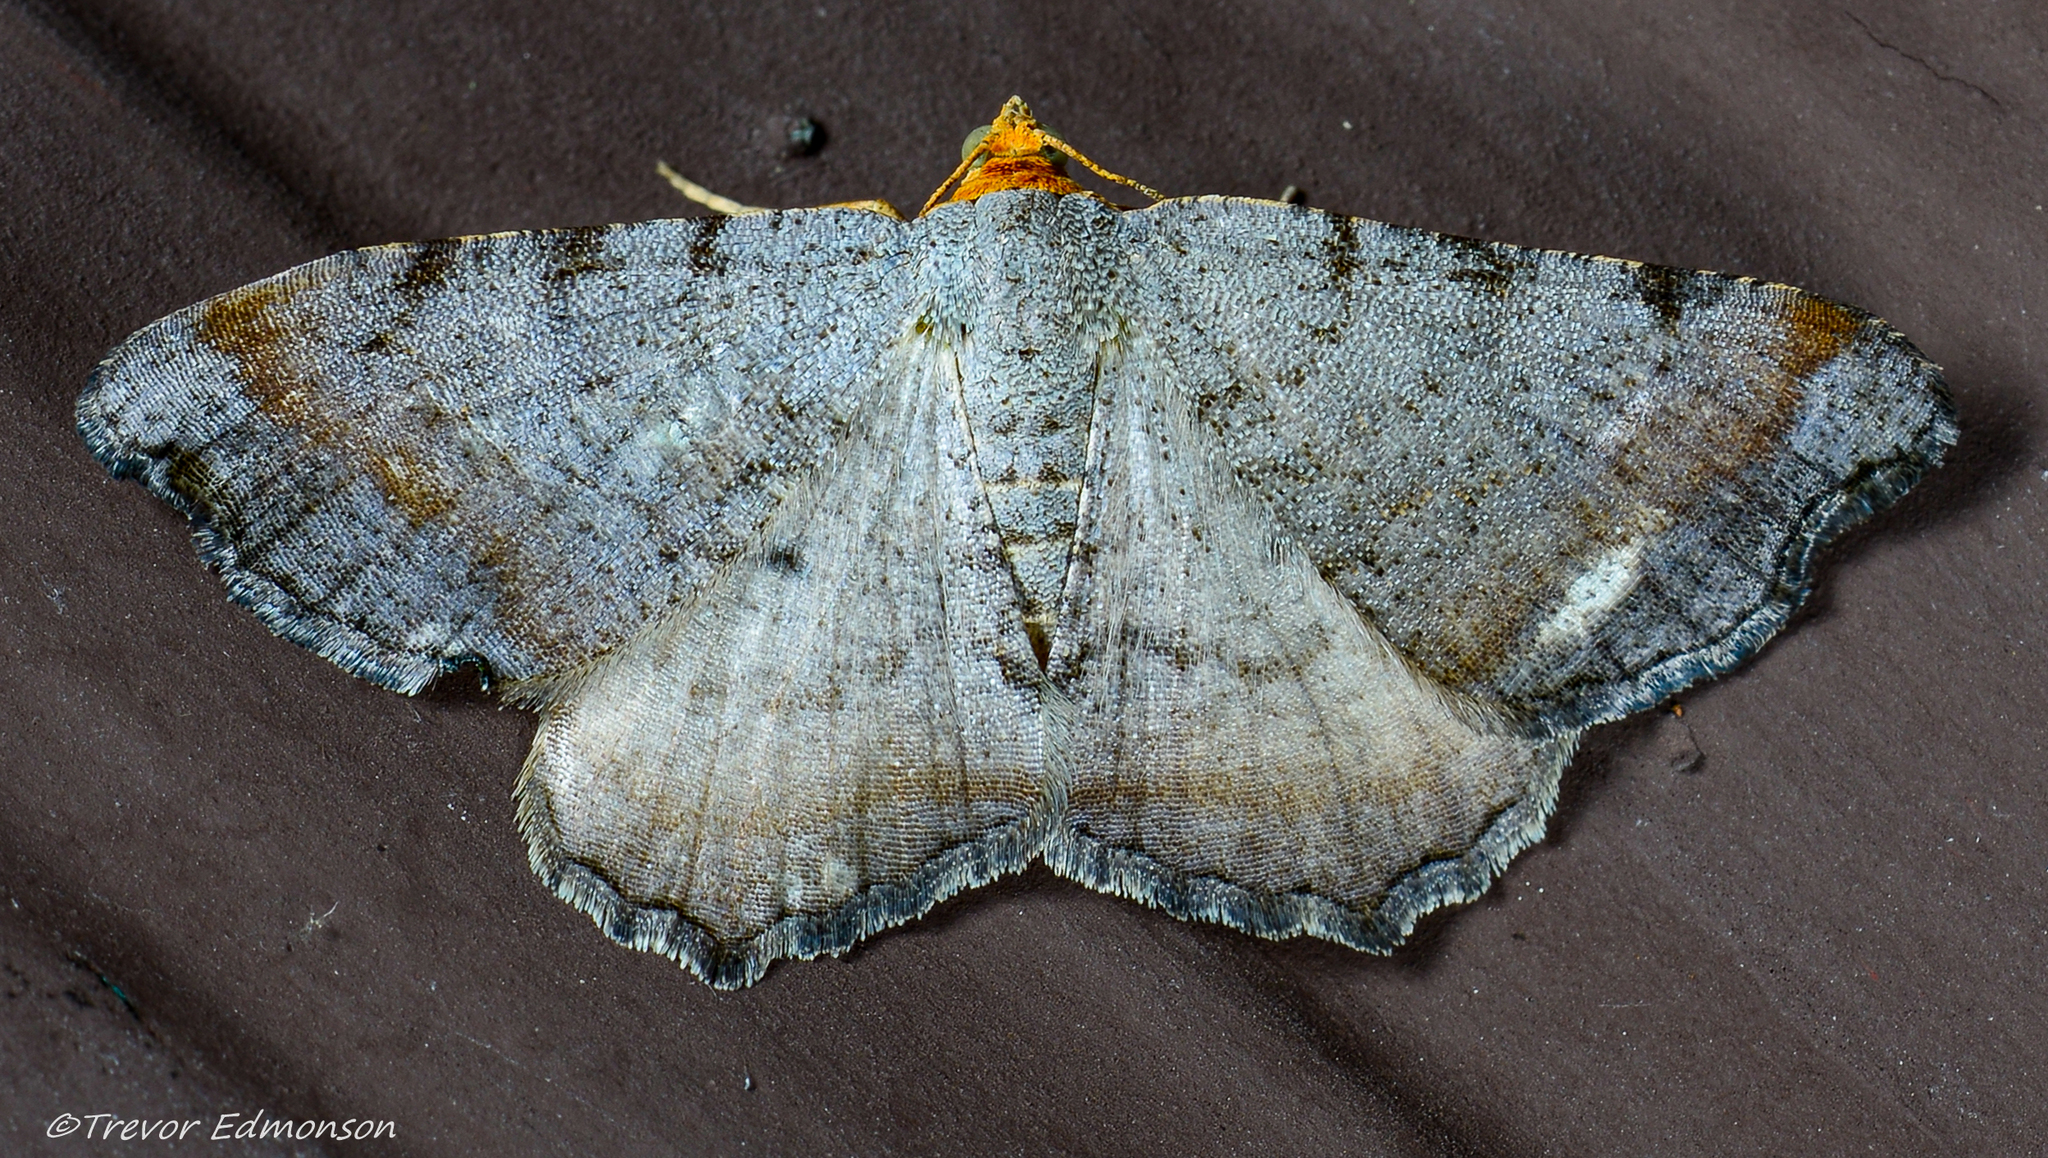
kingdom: Animalia
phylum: Arthropoda
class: Insecta
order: Lepidoptera
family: Geometridae
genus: Macaria
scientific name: Macaria minorata
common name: Minor angle moth
